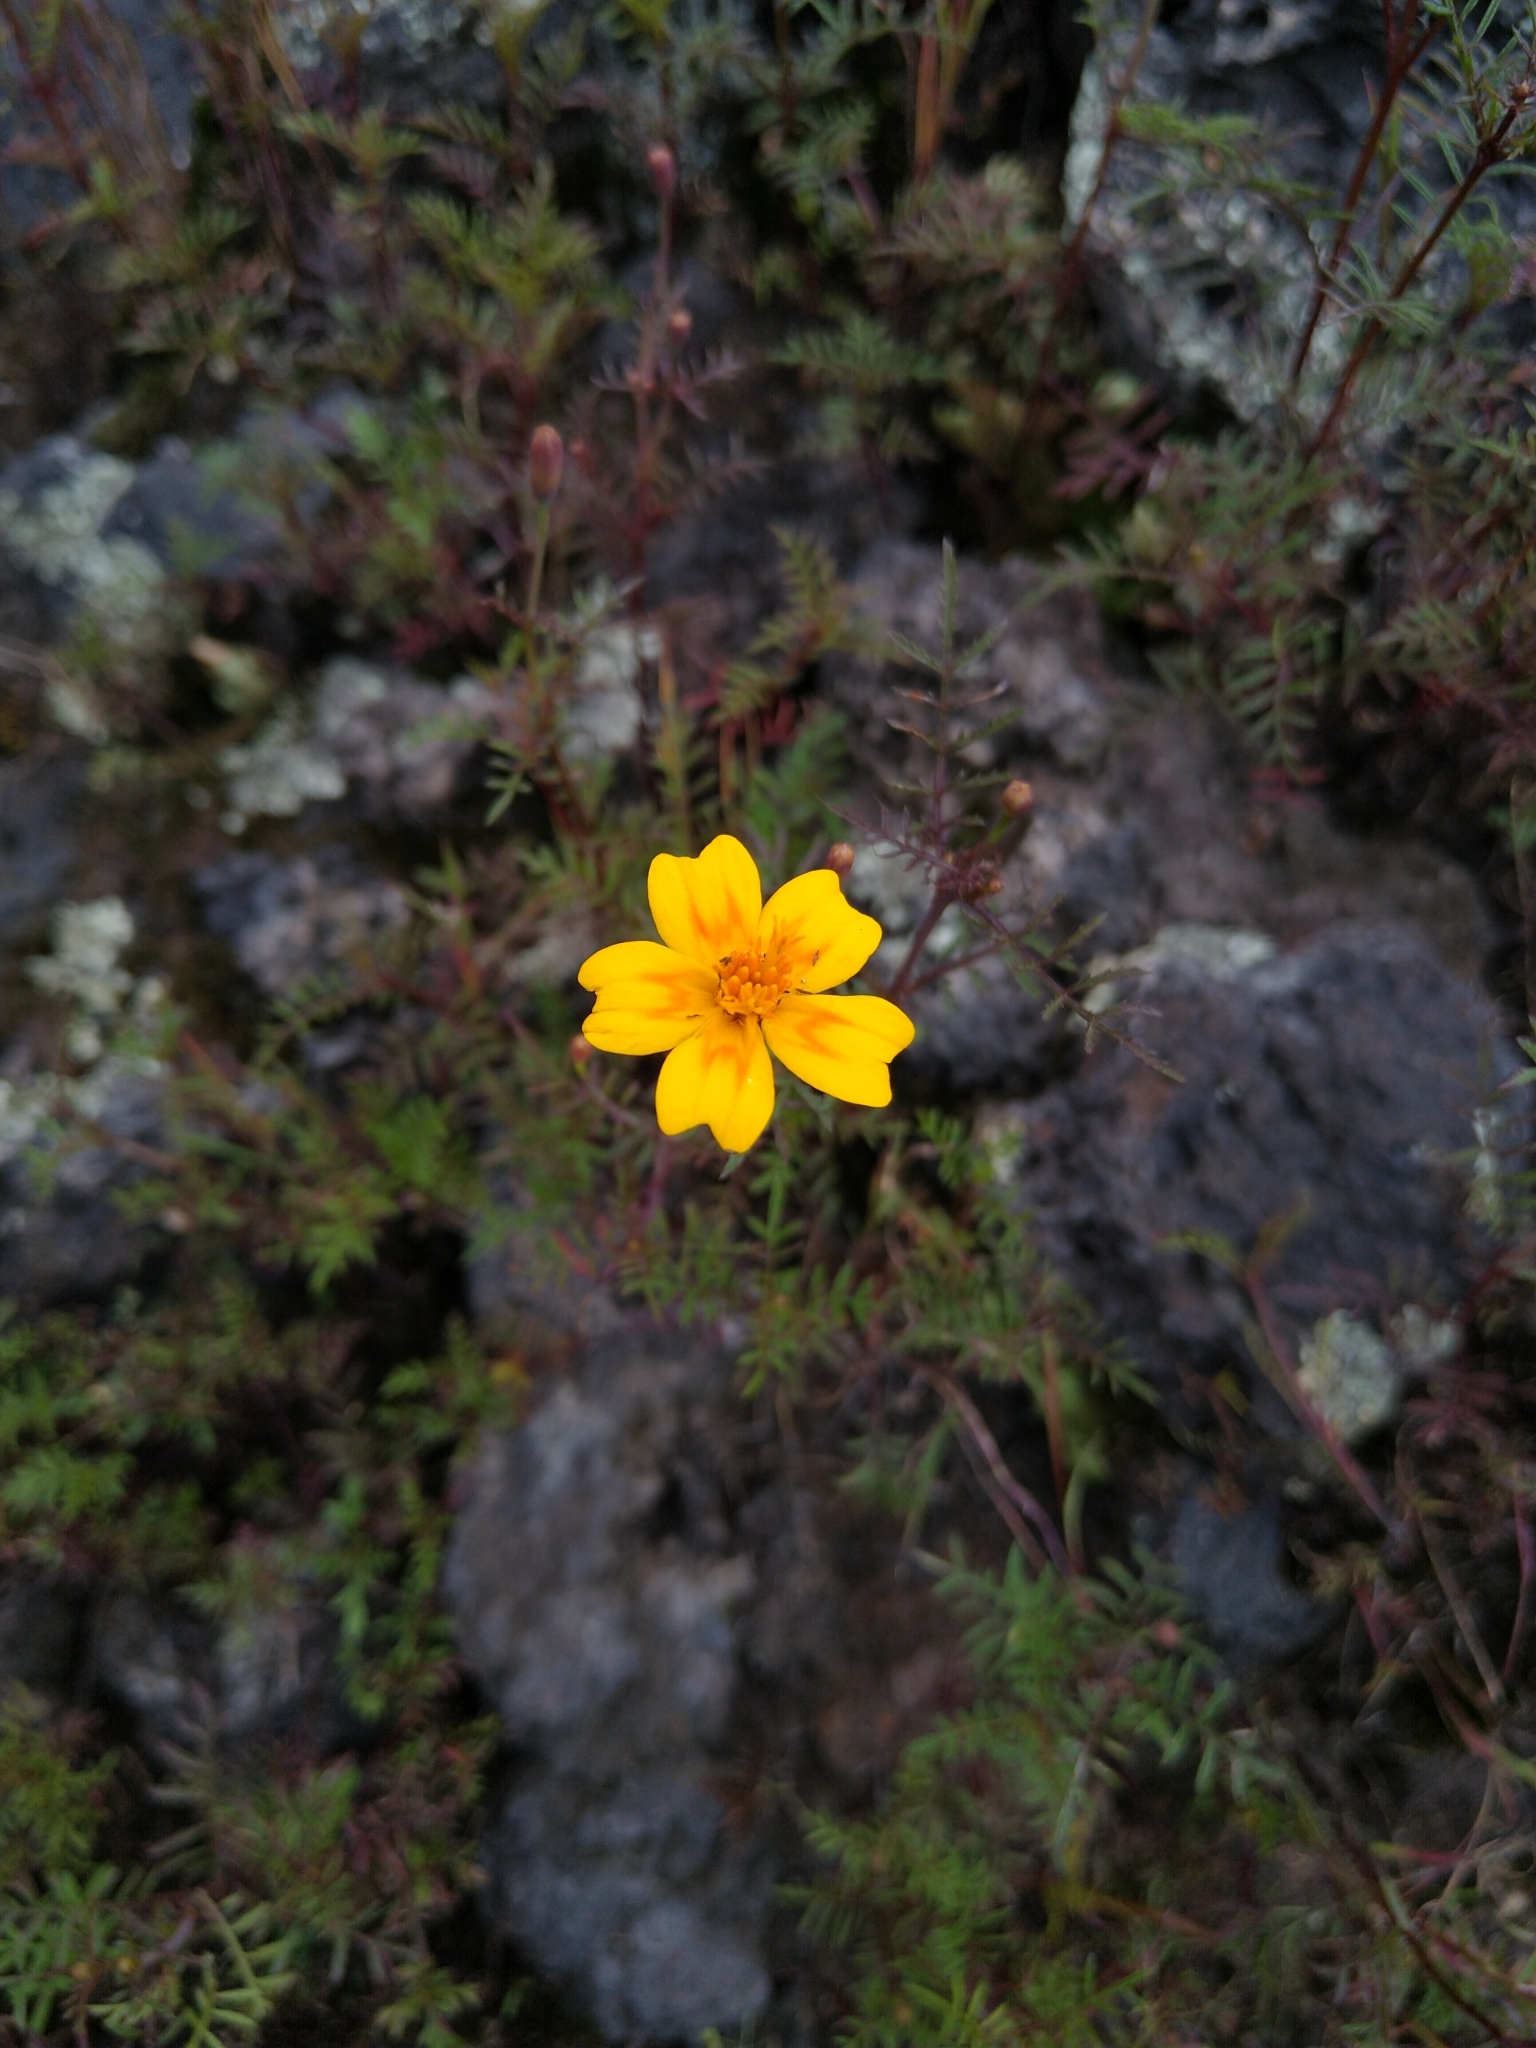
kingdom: Plantae
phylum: Tracheophyta
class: Magnoliopsida
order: Asterales
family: Asteraceae
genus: Tagetes
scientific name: Tagetes lunulata
